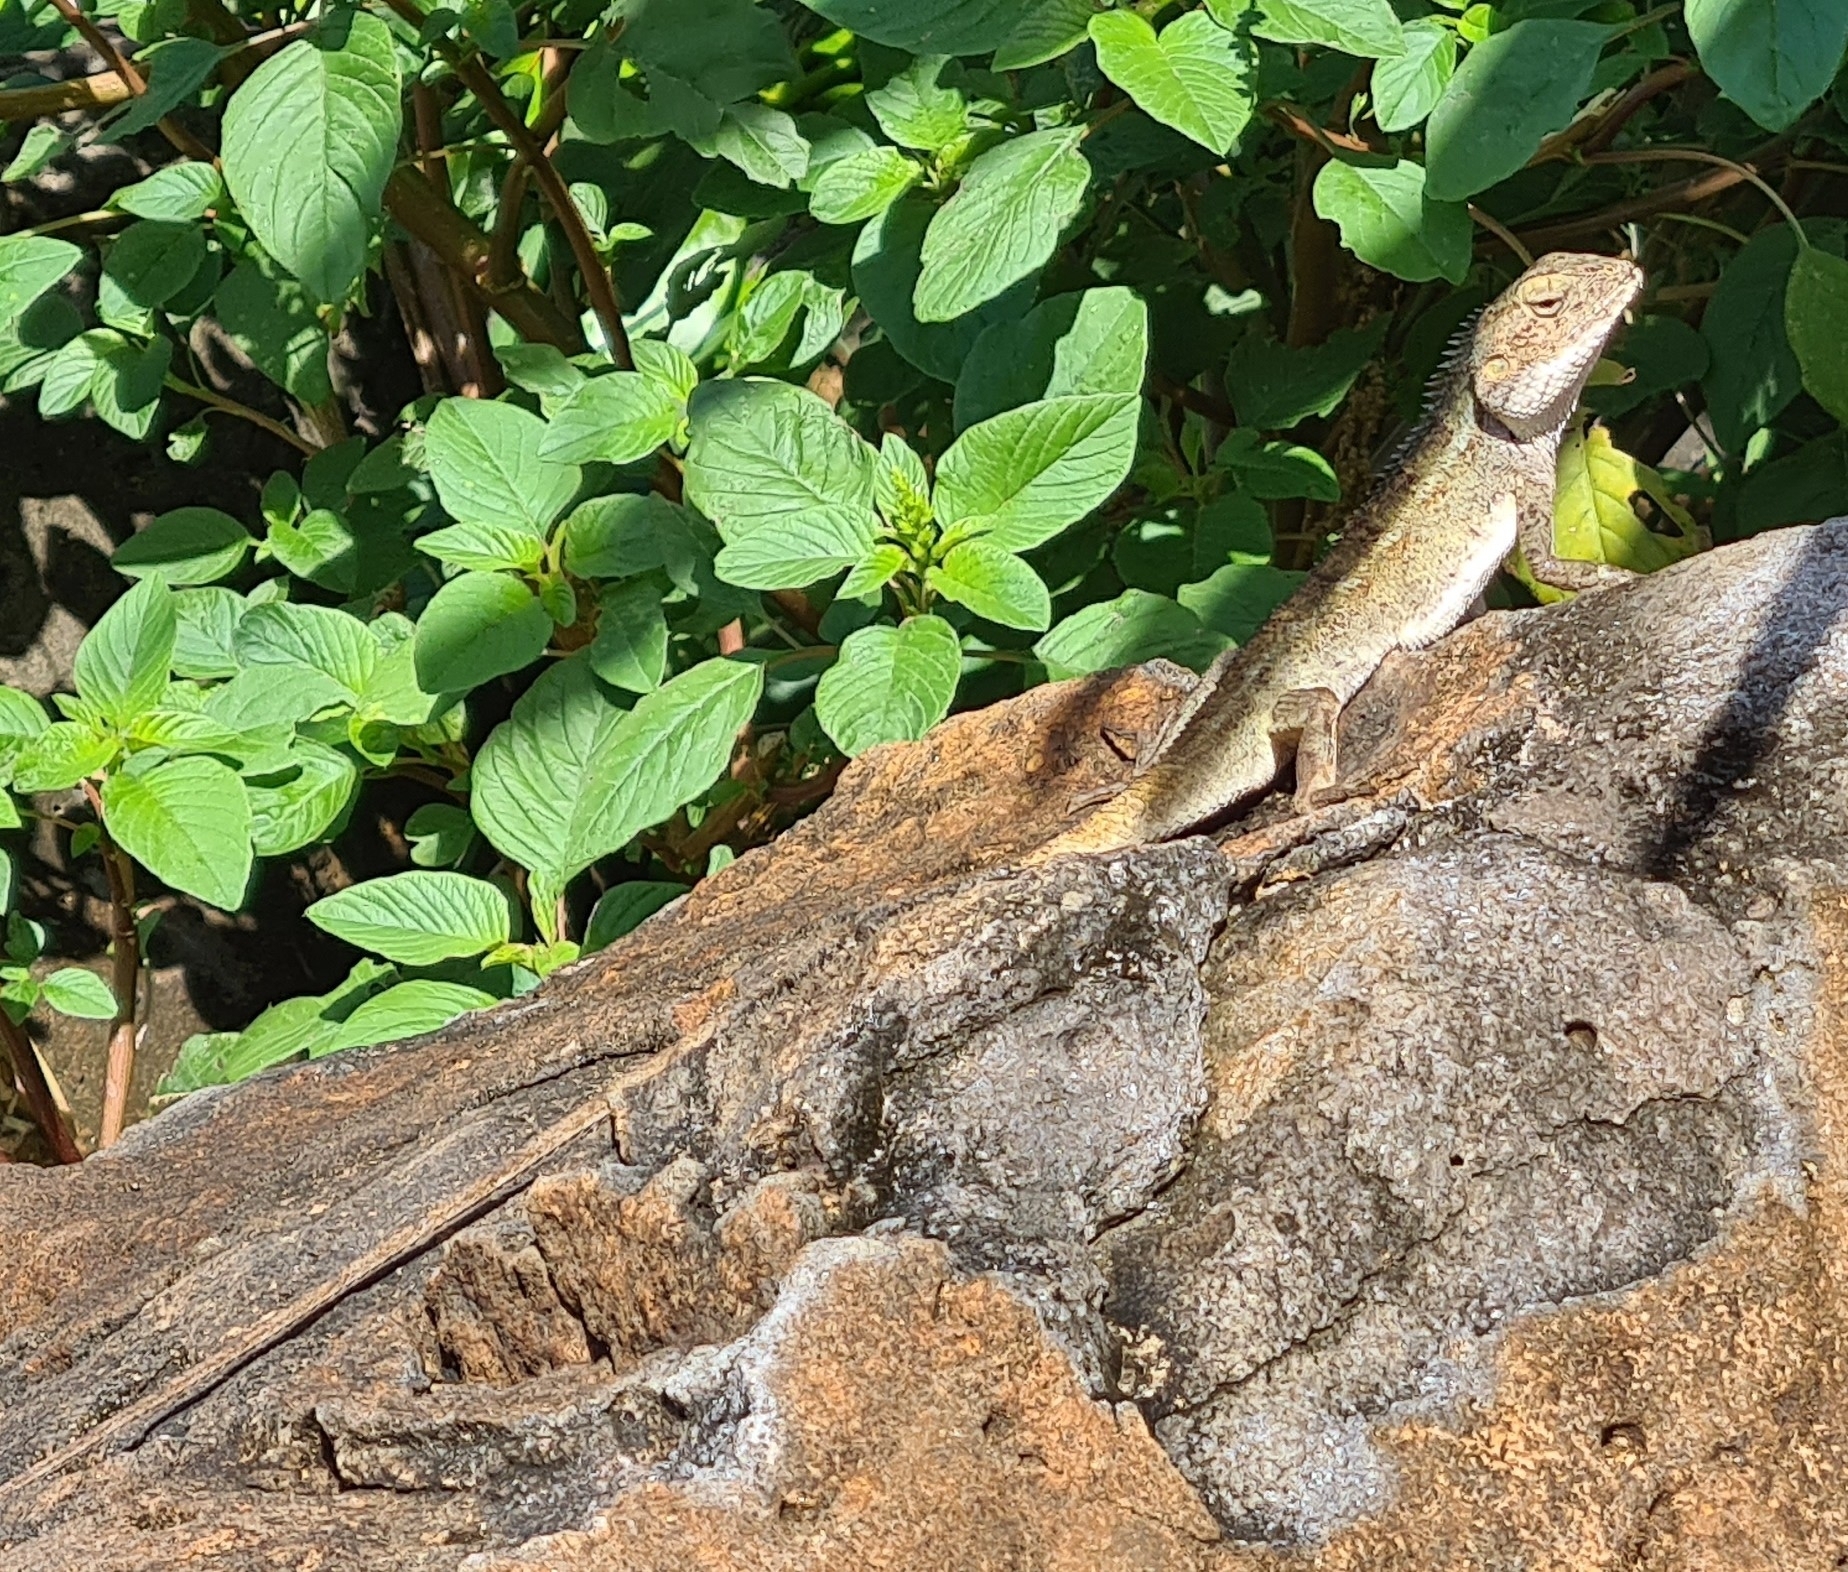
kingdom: Animalia
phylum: Chordata
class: Squamata
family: Agamidae
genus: Calotes
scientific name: Calotes versicolor
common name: Oriental garden lizard
